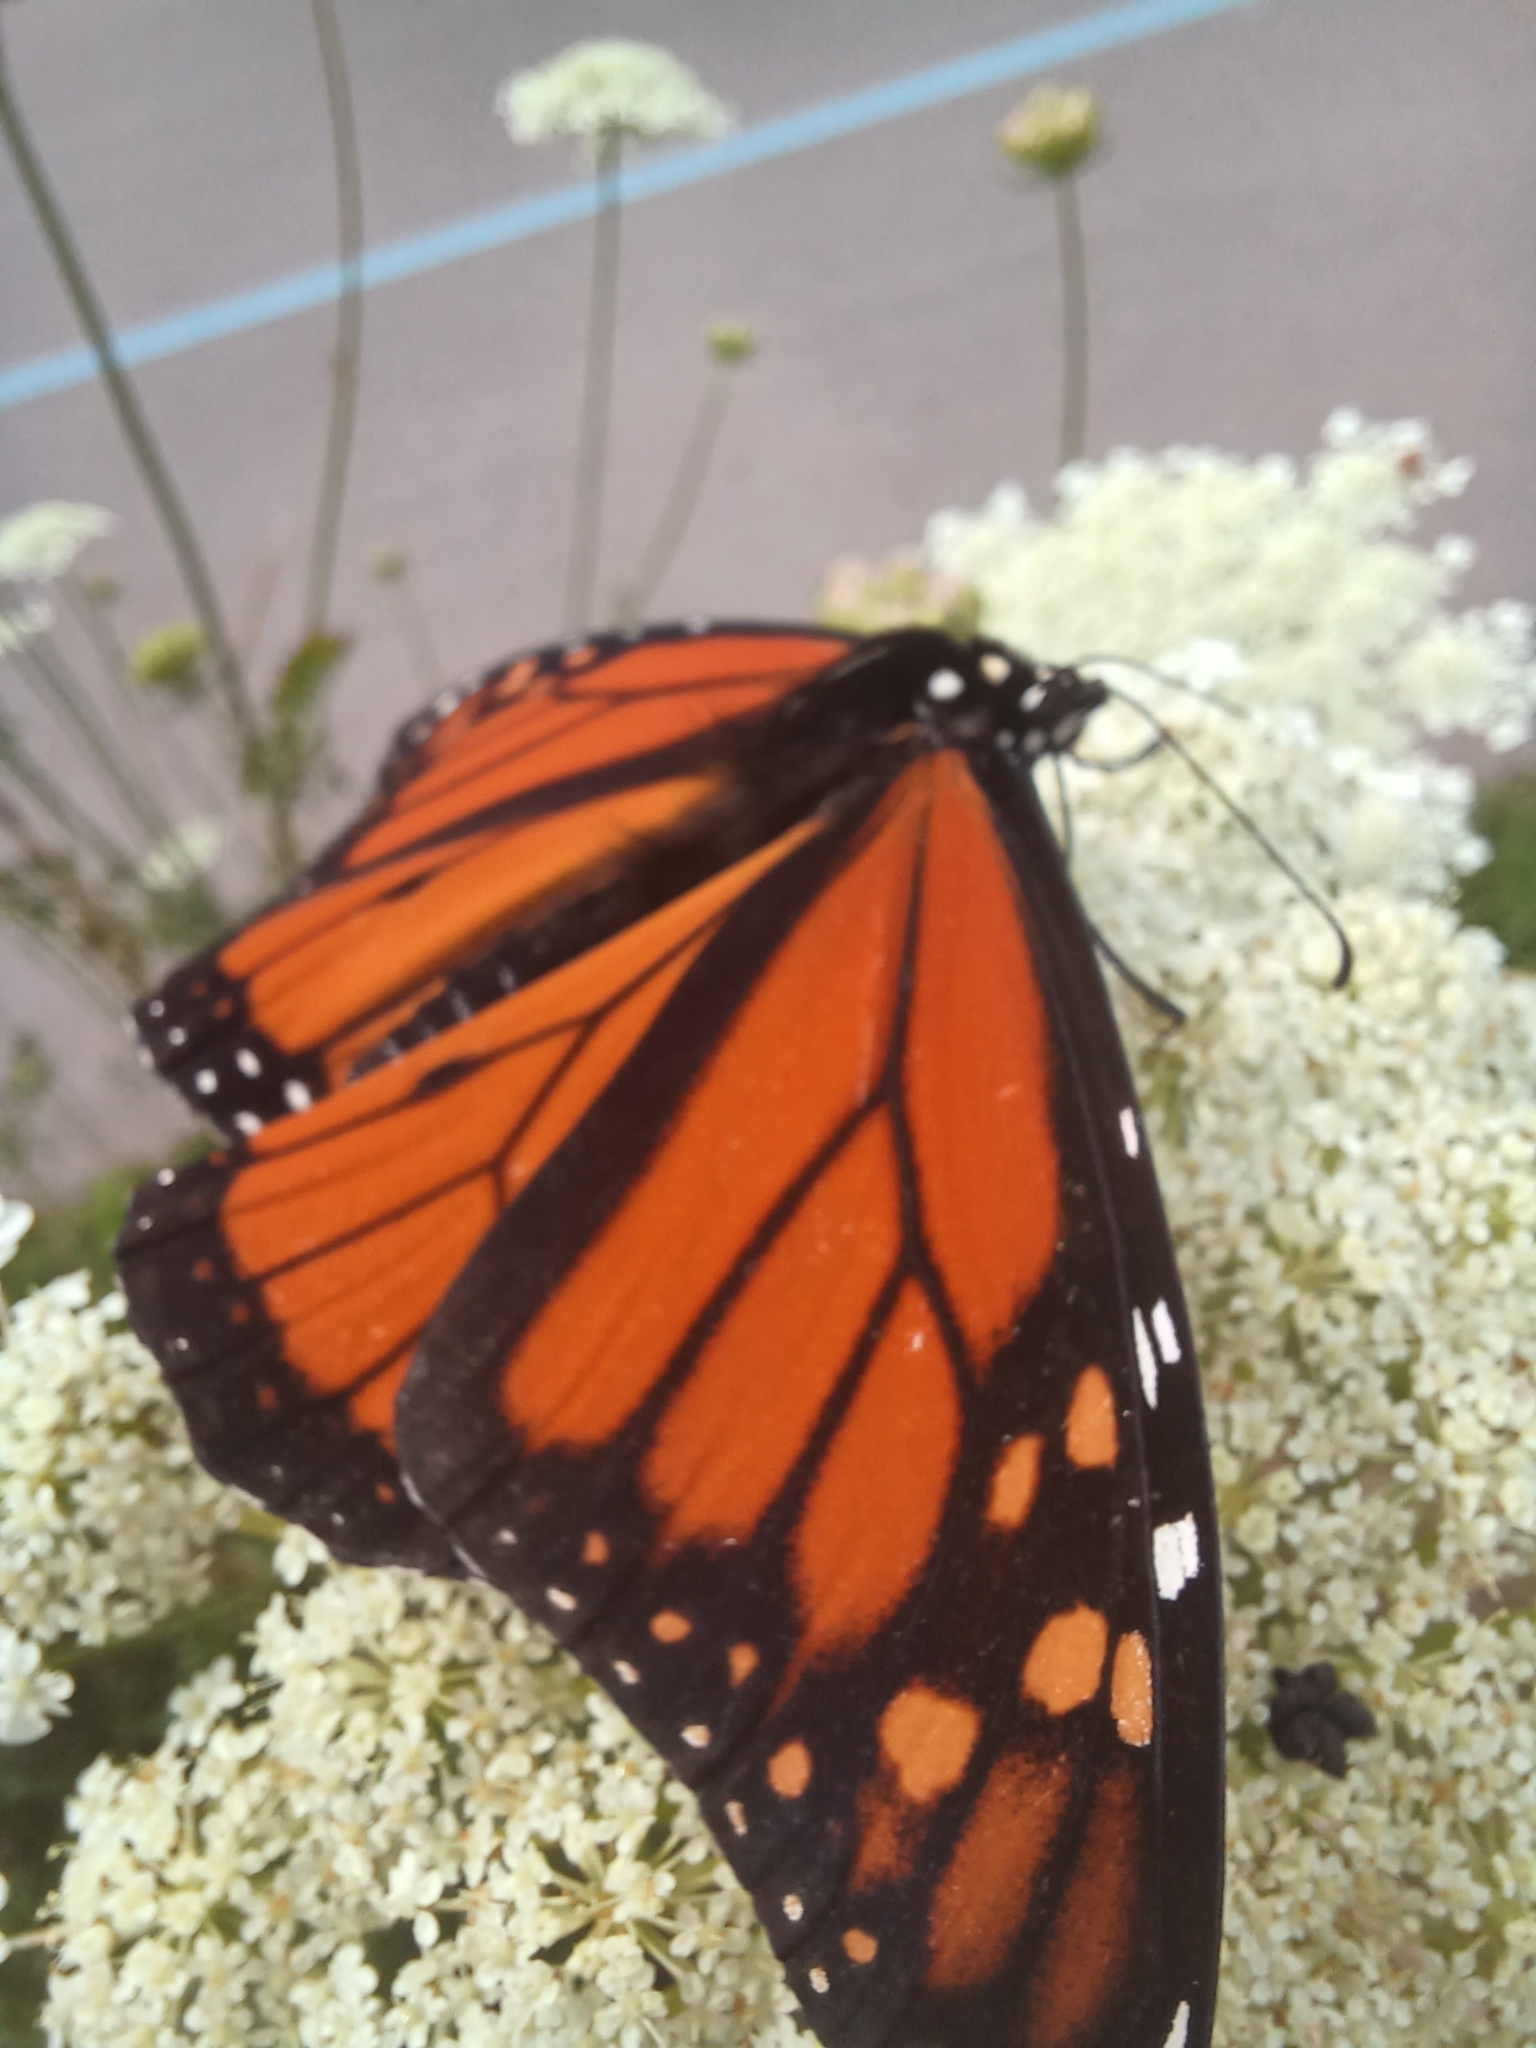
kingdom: Animalia
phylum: Arthropoda
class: Insecta
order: Lepidoptera
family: Nymphalidae
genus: Danaus
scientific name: Danaus plexippus
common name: Monarch
